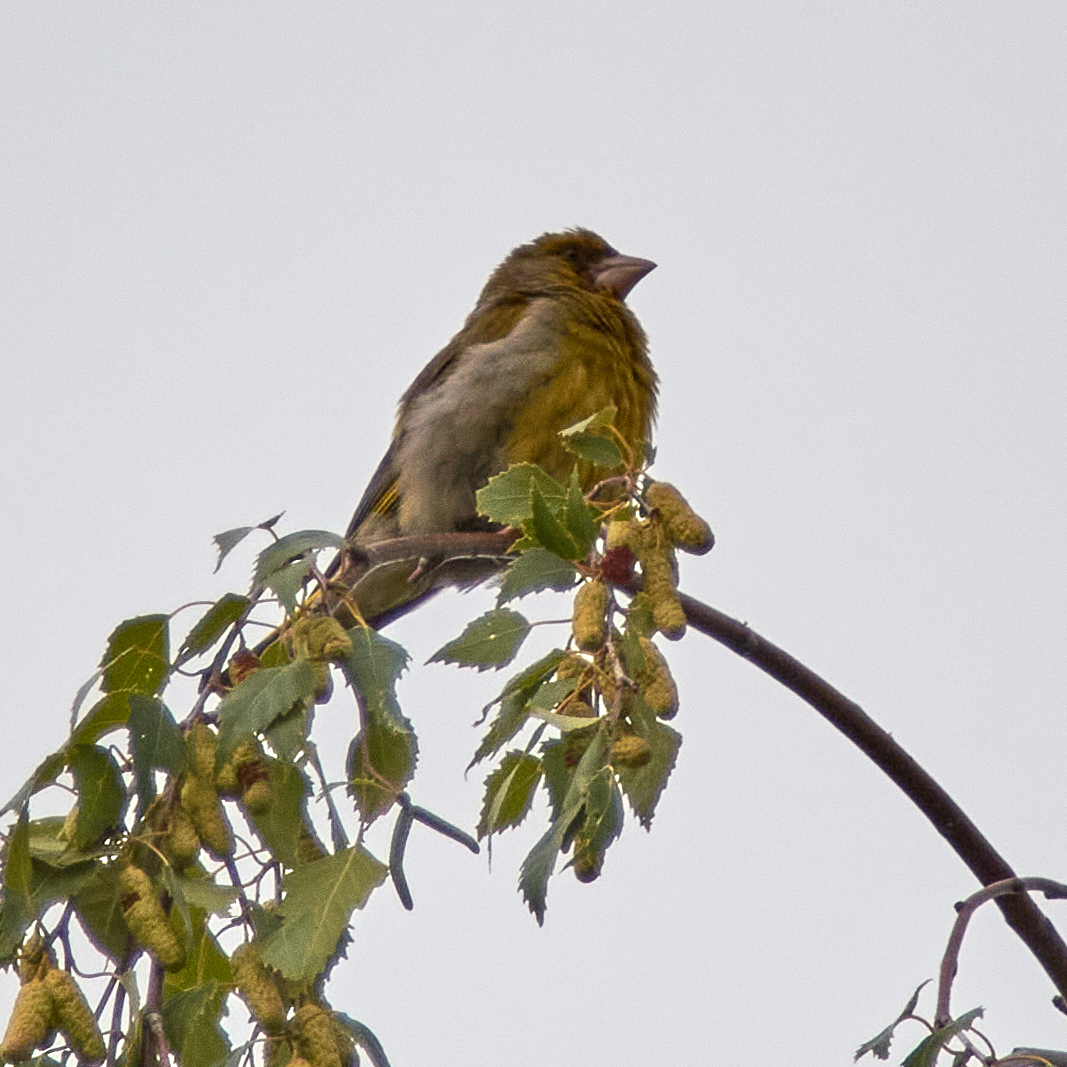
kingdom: Plantae
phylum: Tracheophyta
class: Liliopsida
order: Poales
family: Poaceae
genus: Chloris
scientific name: Chloris chloris
